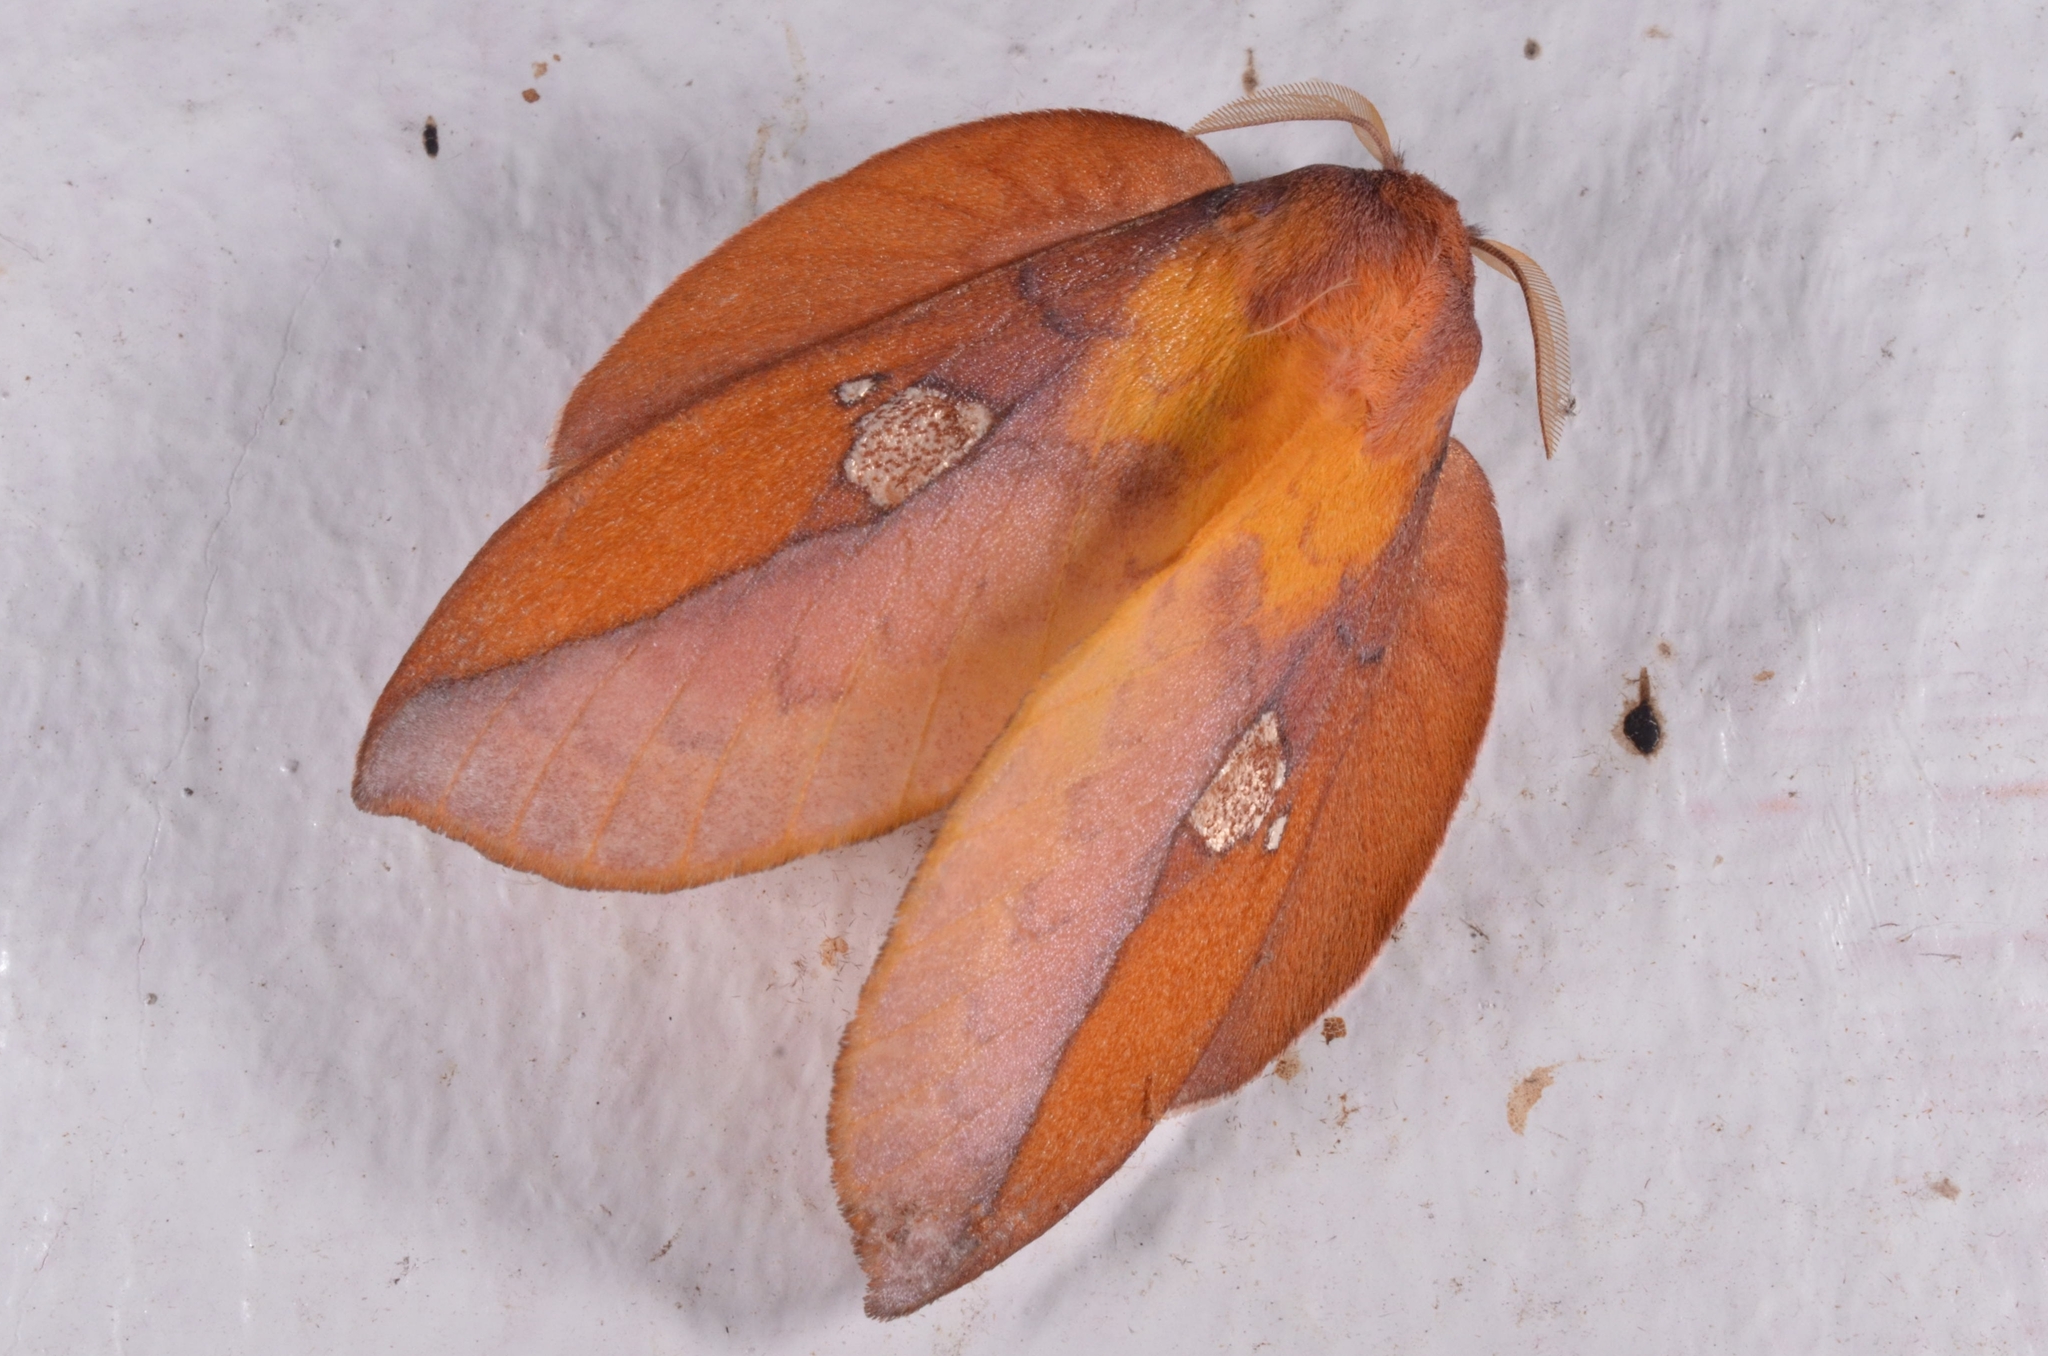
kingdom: Animalia
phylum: Arthropoda
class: Insecta
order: Lepidoptera
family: Lasiocampidae
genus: Euthrix
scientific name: Euthrix laeta
